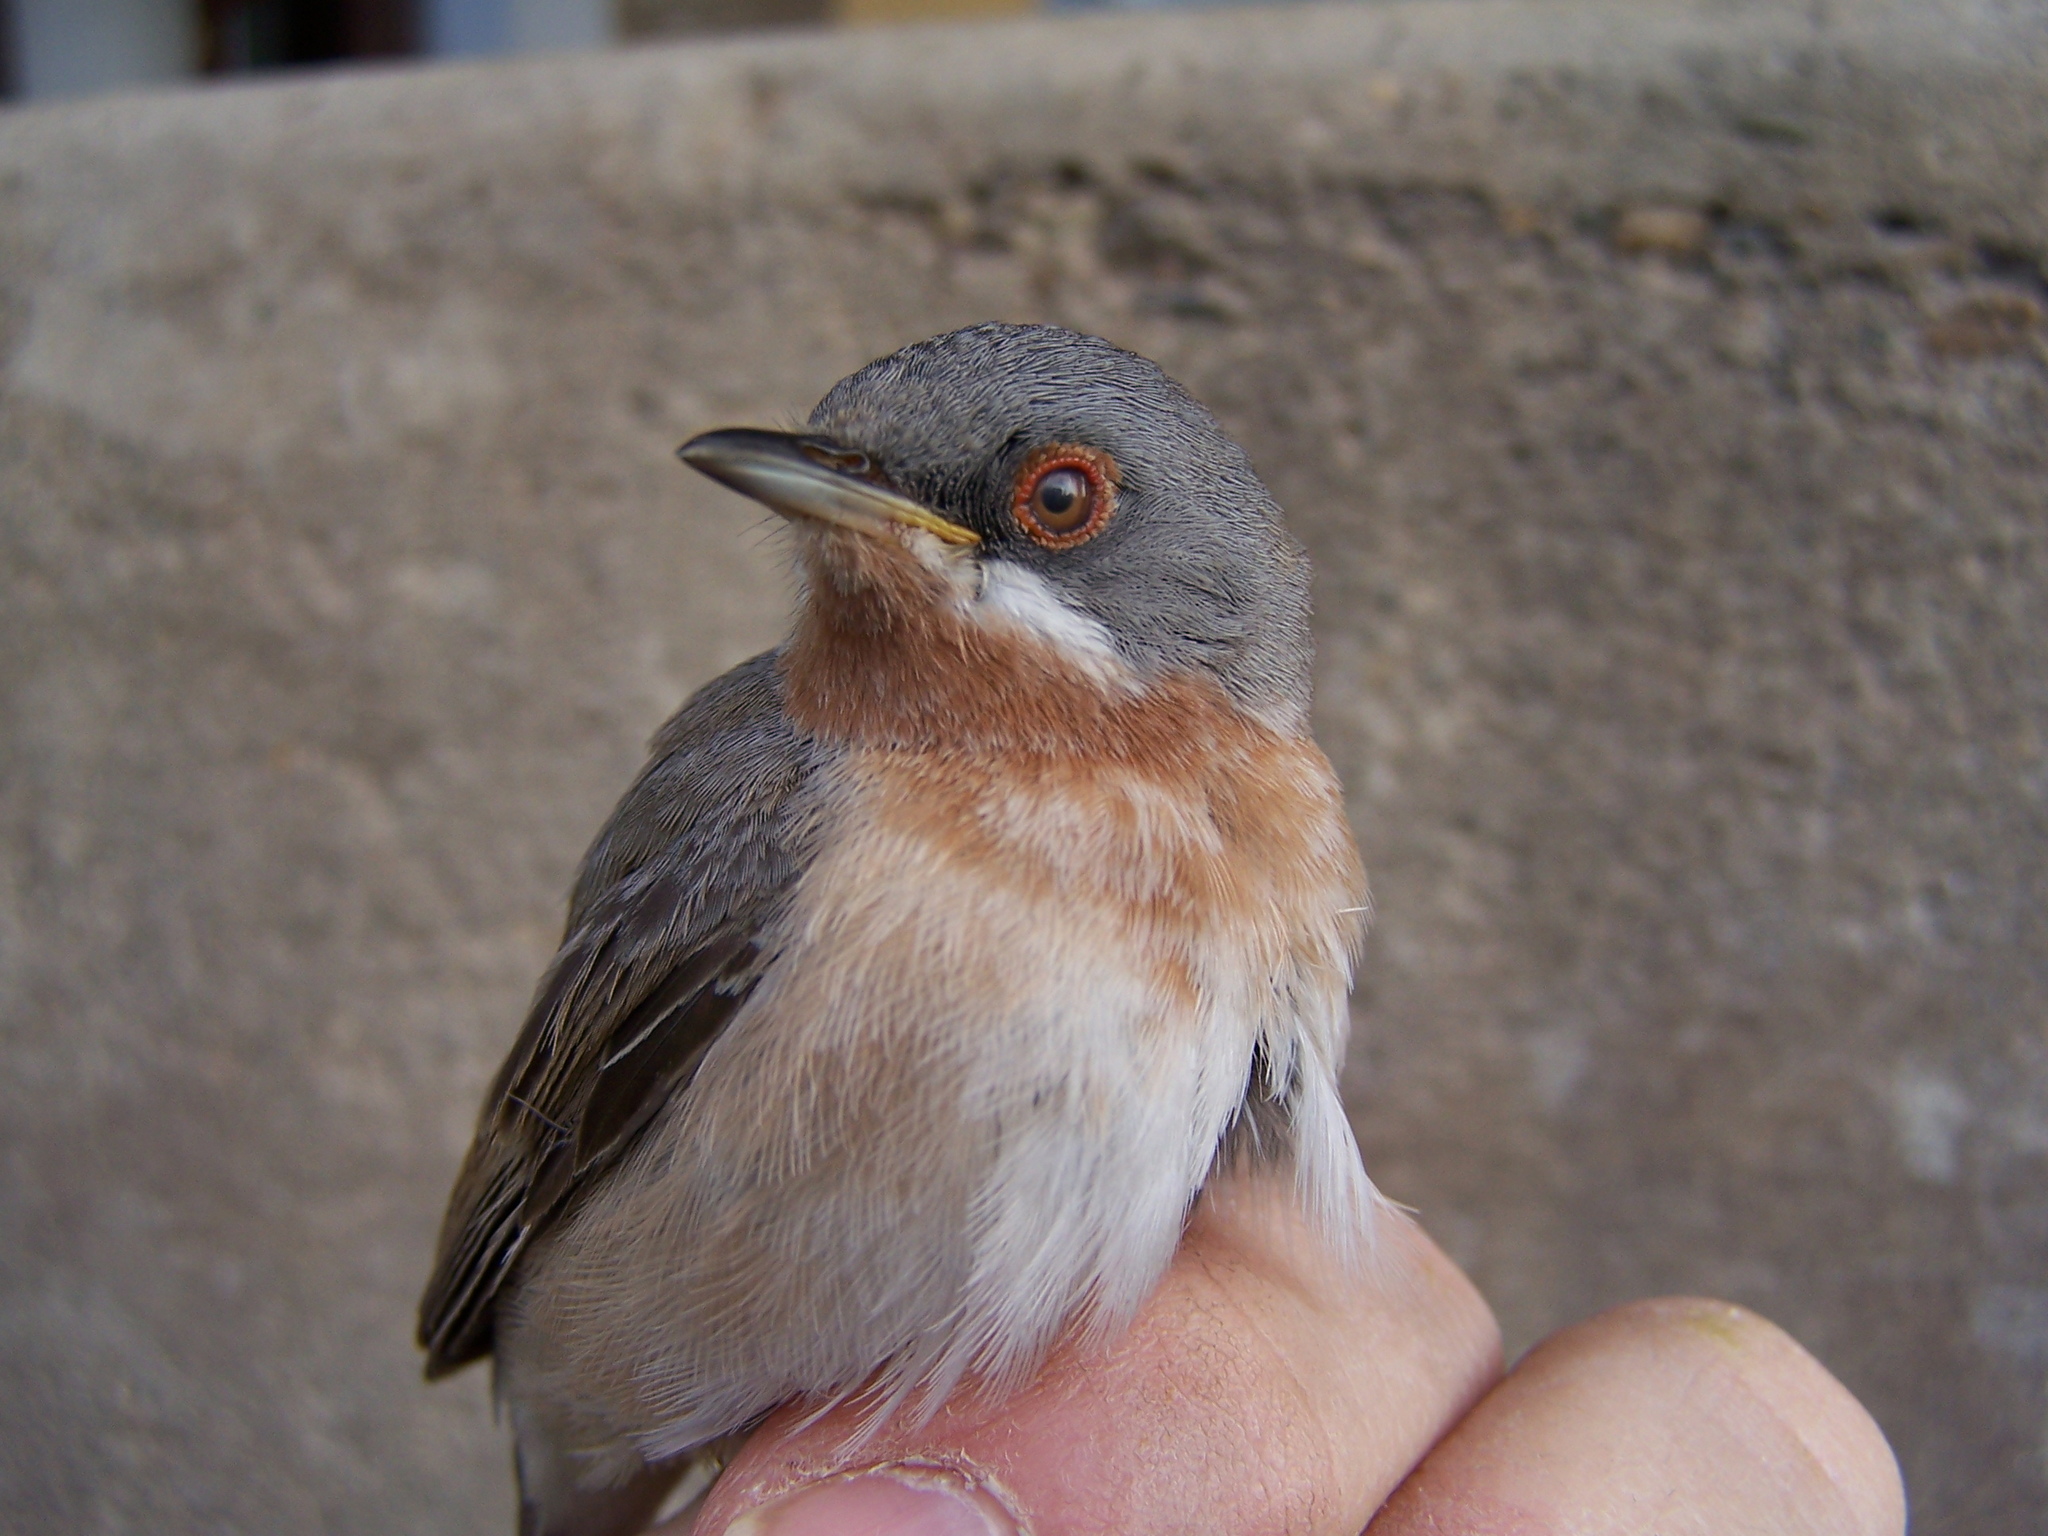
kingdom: Animalia
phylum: Chordata
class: Aves
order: Passeriformes
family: Sylviidae
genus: Curruca
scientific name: Curruca cantillans
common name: Subalpine warbler
